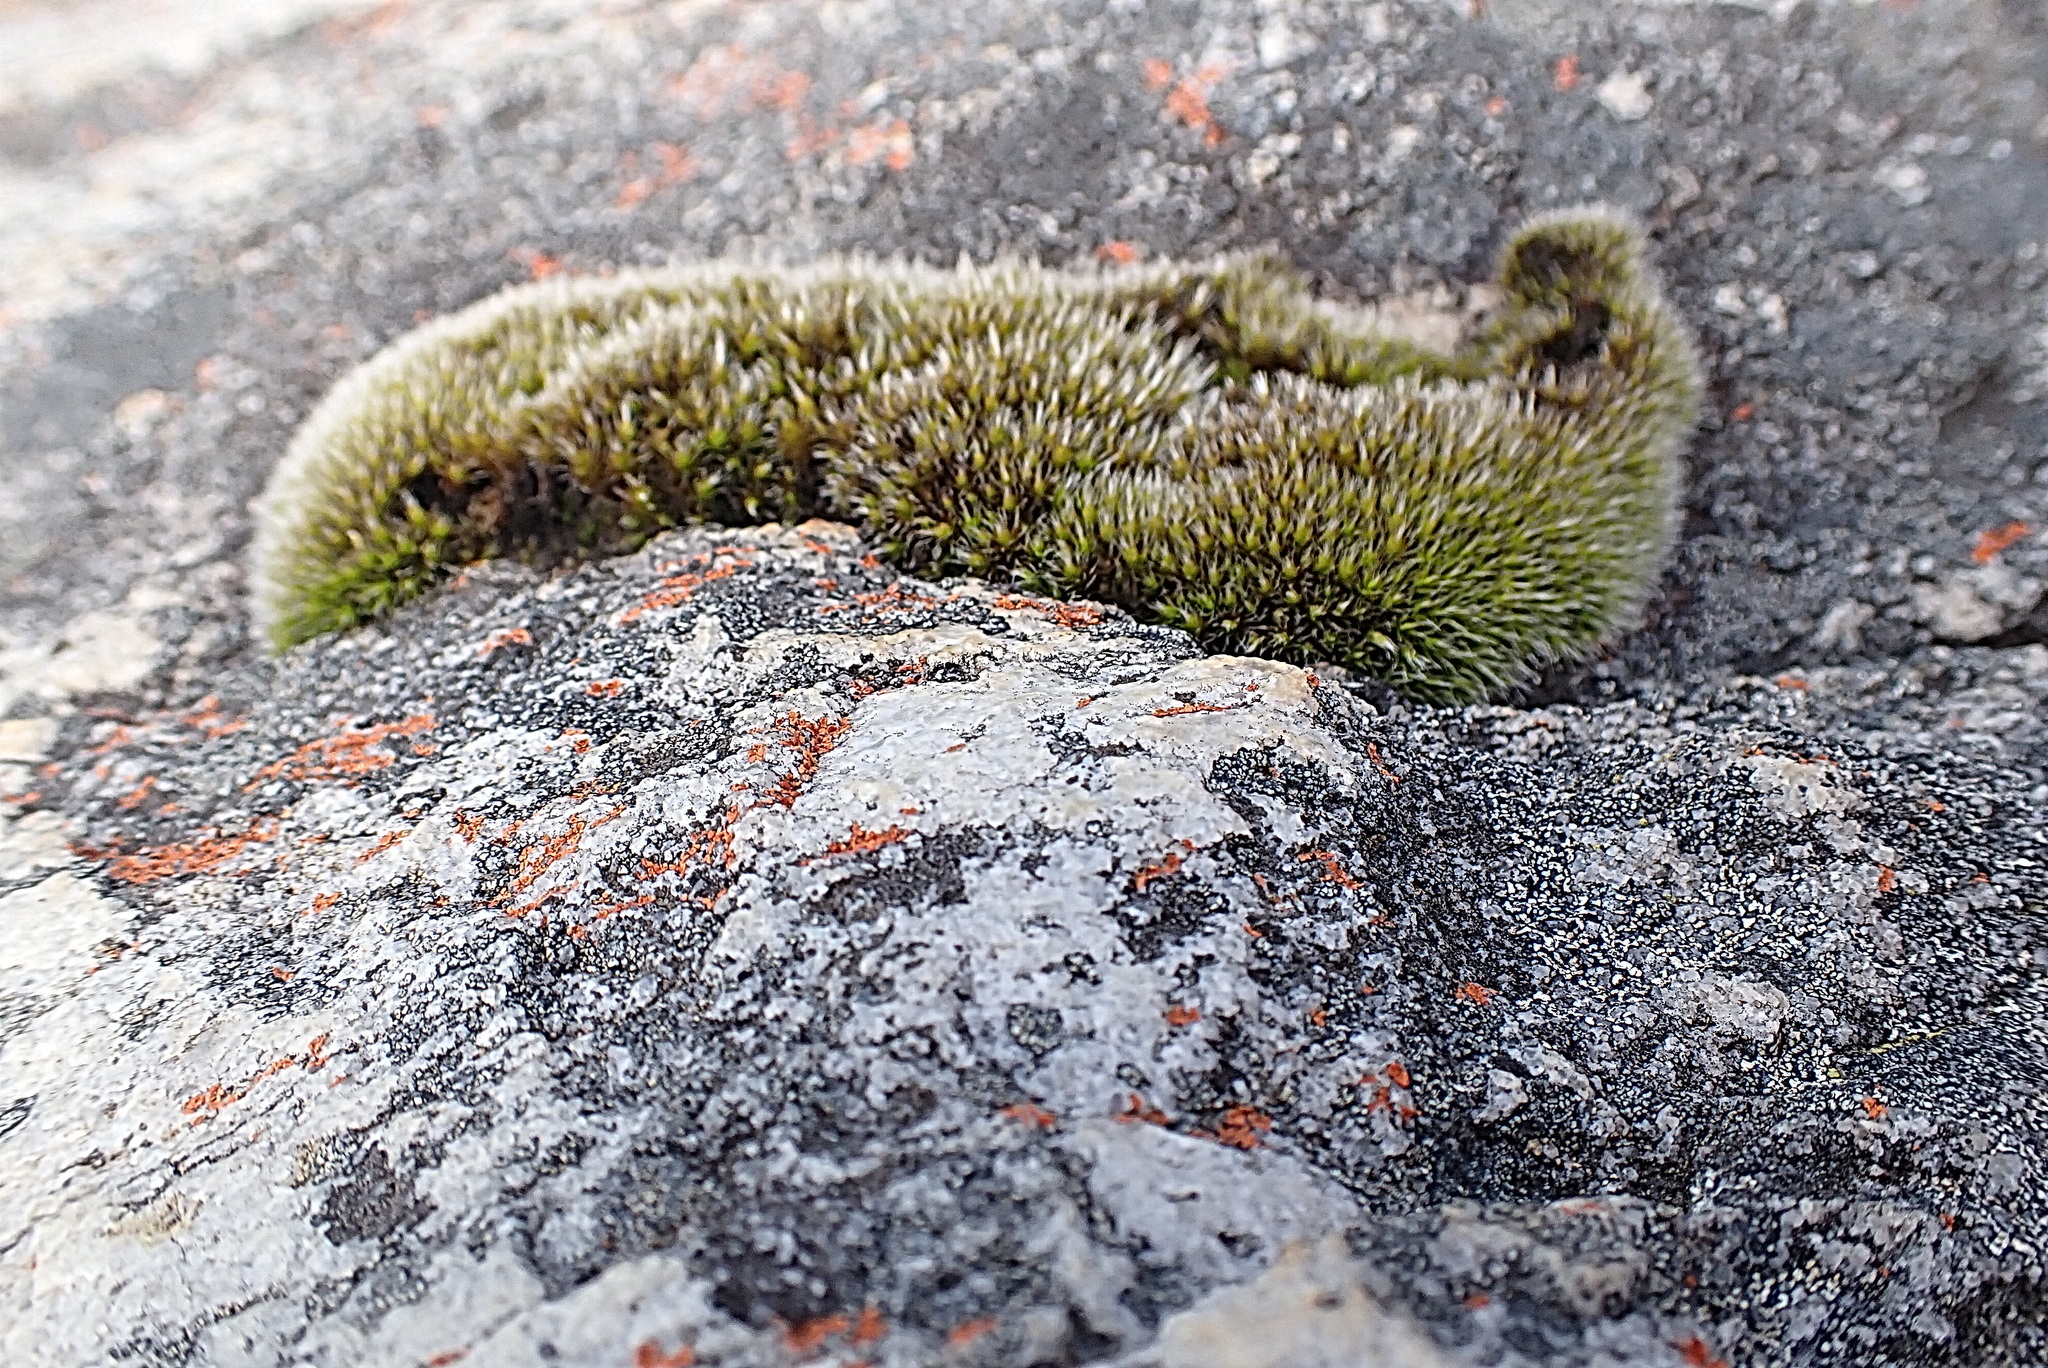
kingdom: Plantae
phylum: Bryophyta
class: Bryopsida
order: Grimmiales
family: Grimmiaceae
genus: Grimmia
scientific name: Grimmia pulvinata
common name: Grey-cushioned grimmia
